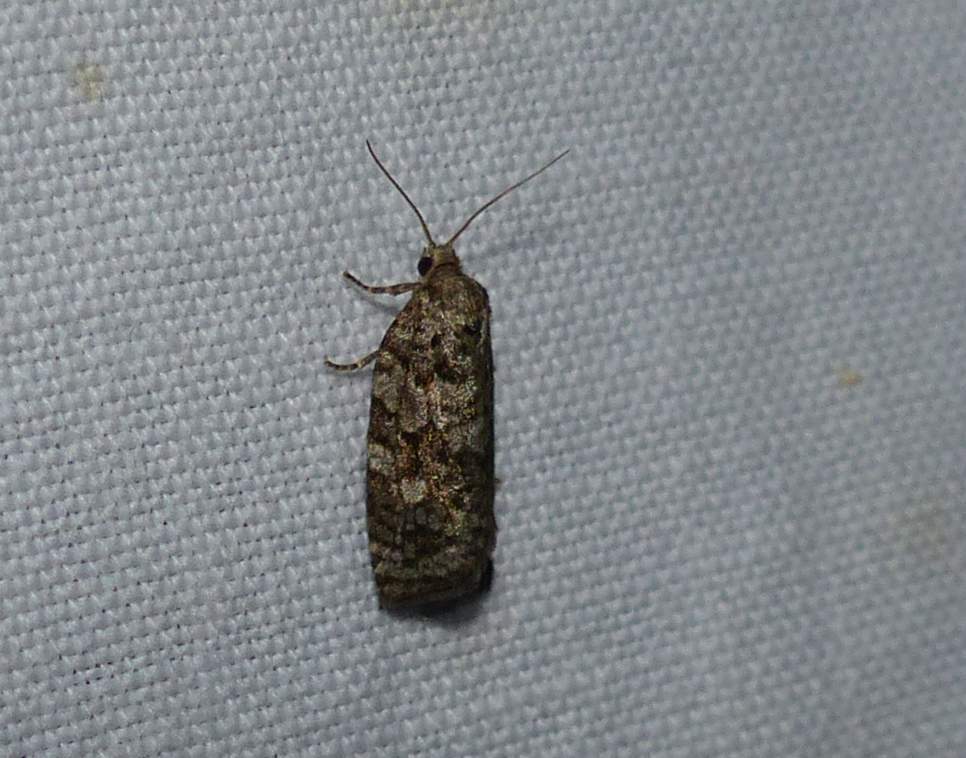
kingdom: Animalia
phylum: Arthropoda
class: Insecta
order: Lepidoptera
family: Tortricidae
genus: Choristoneura
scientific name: Choristoneura fumiferana
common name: Spruce budworm
